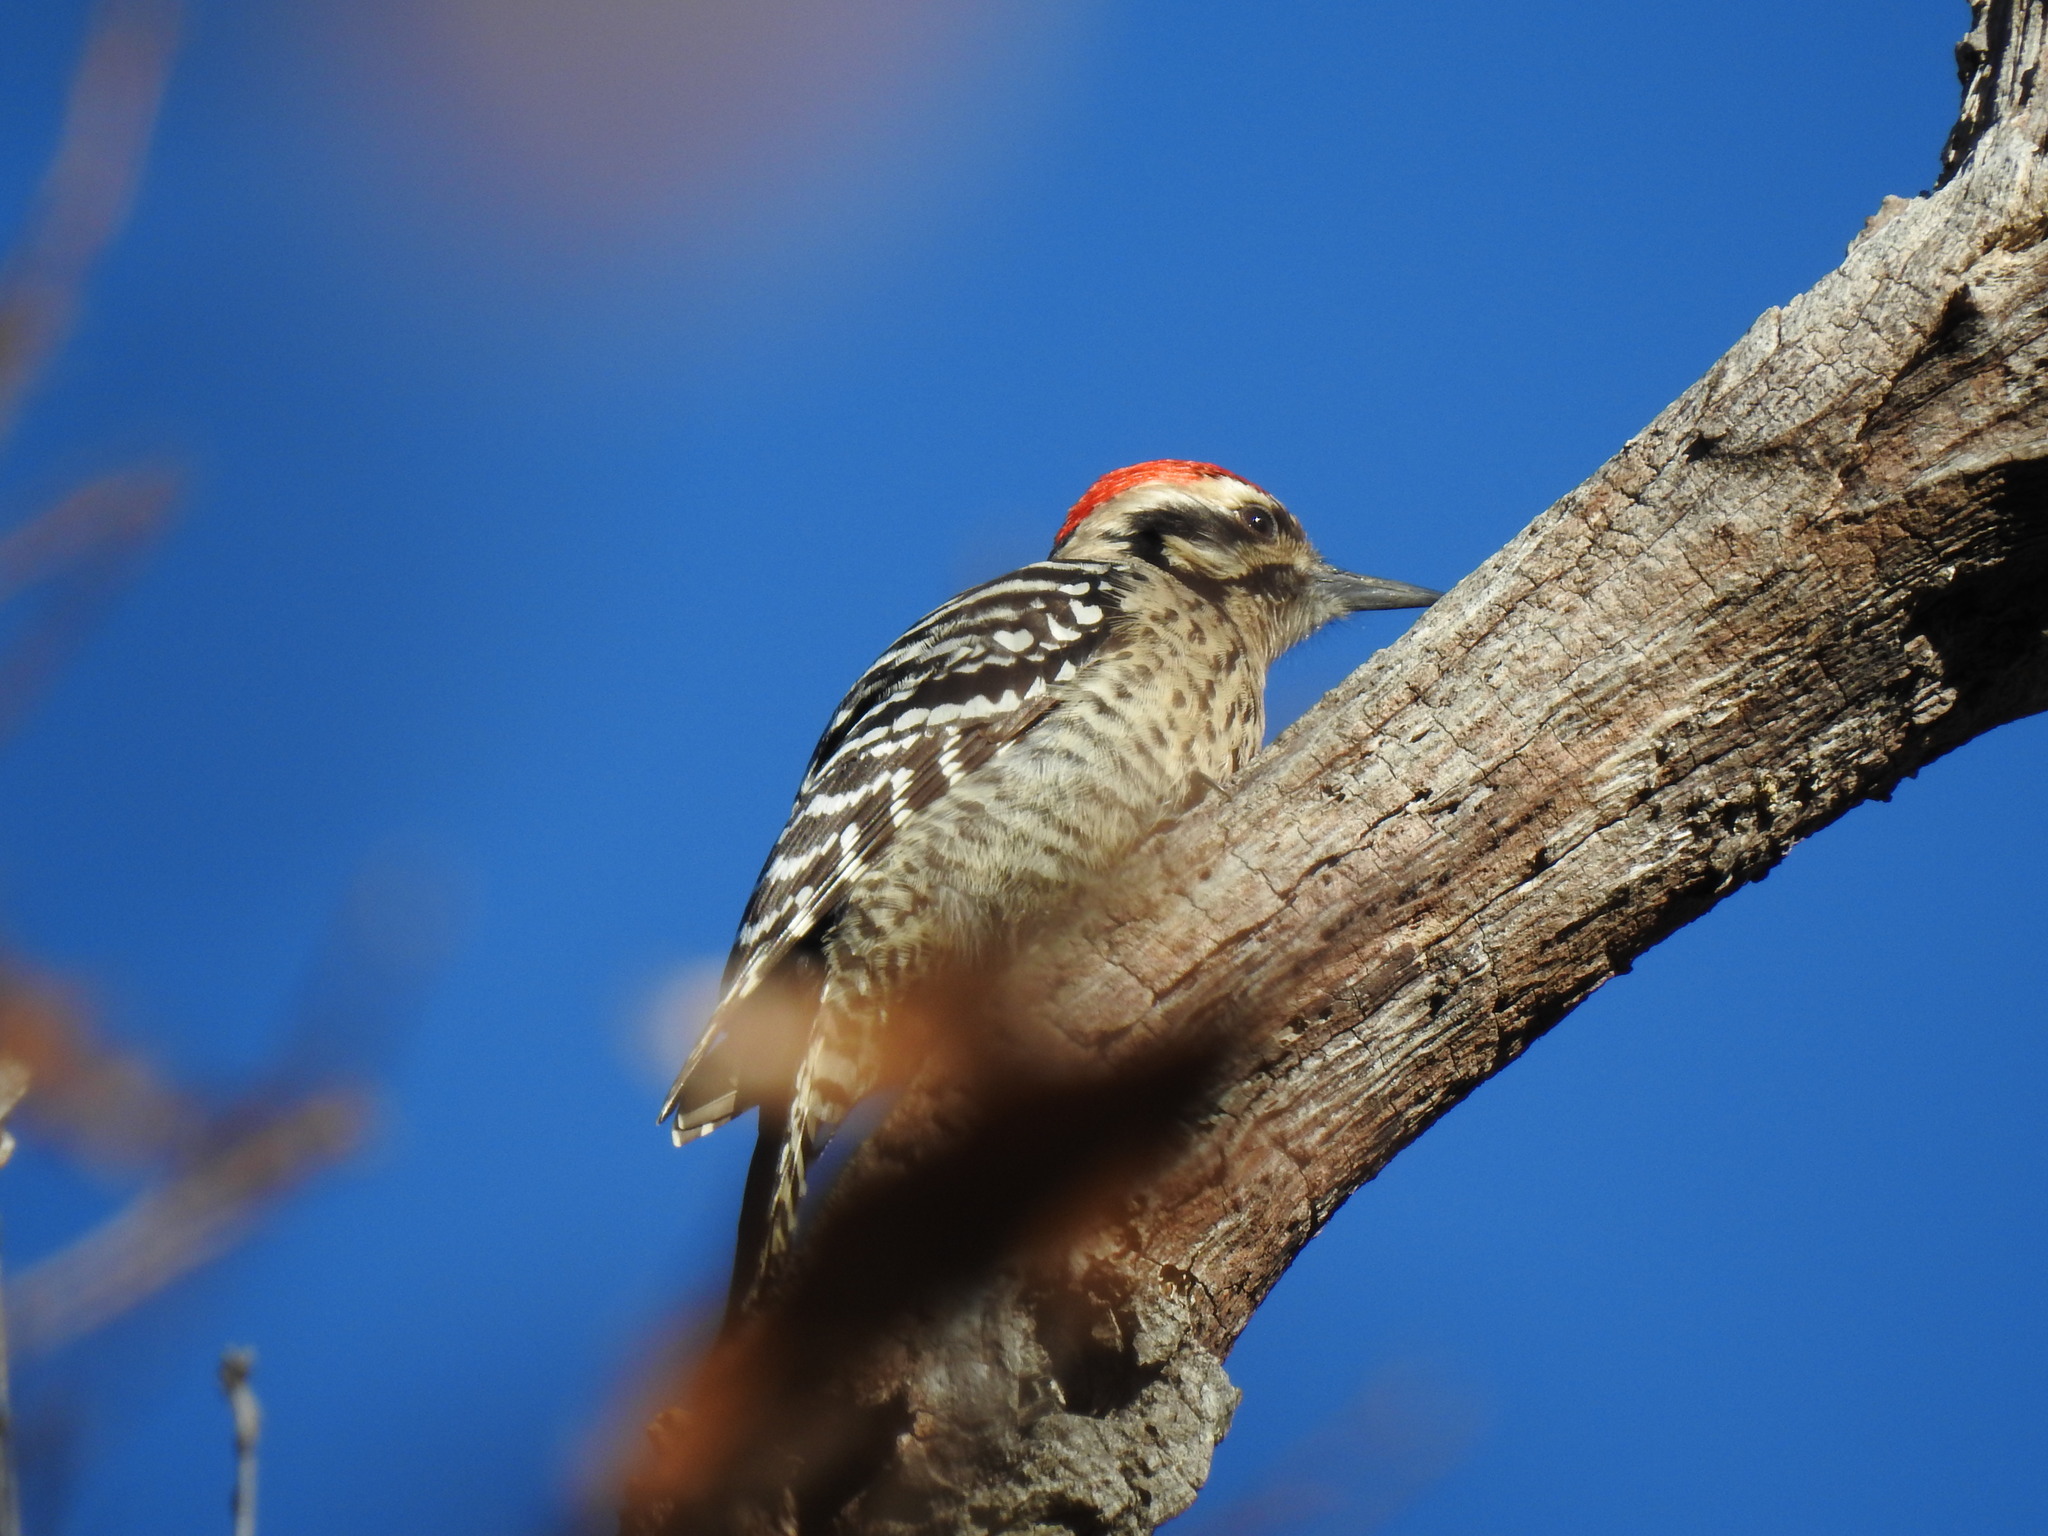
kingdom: Animalia
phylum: Chordata
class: Aves
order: Piciformes
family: Picidae
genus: Dryobates
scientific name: Dryobates scalaris
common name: Ladder-backed woodpecker
